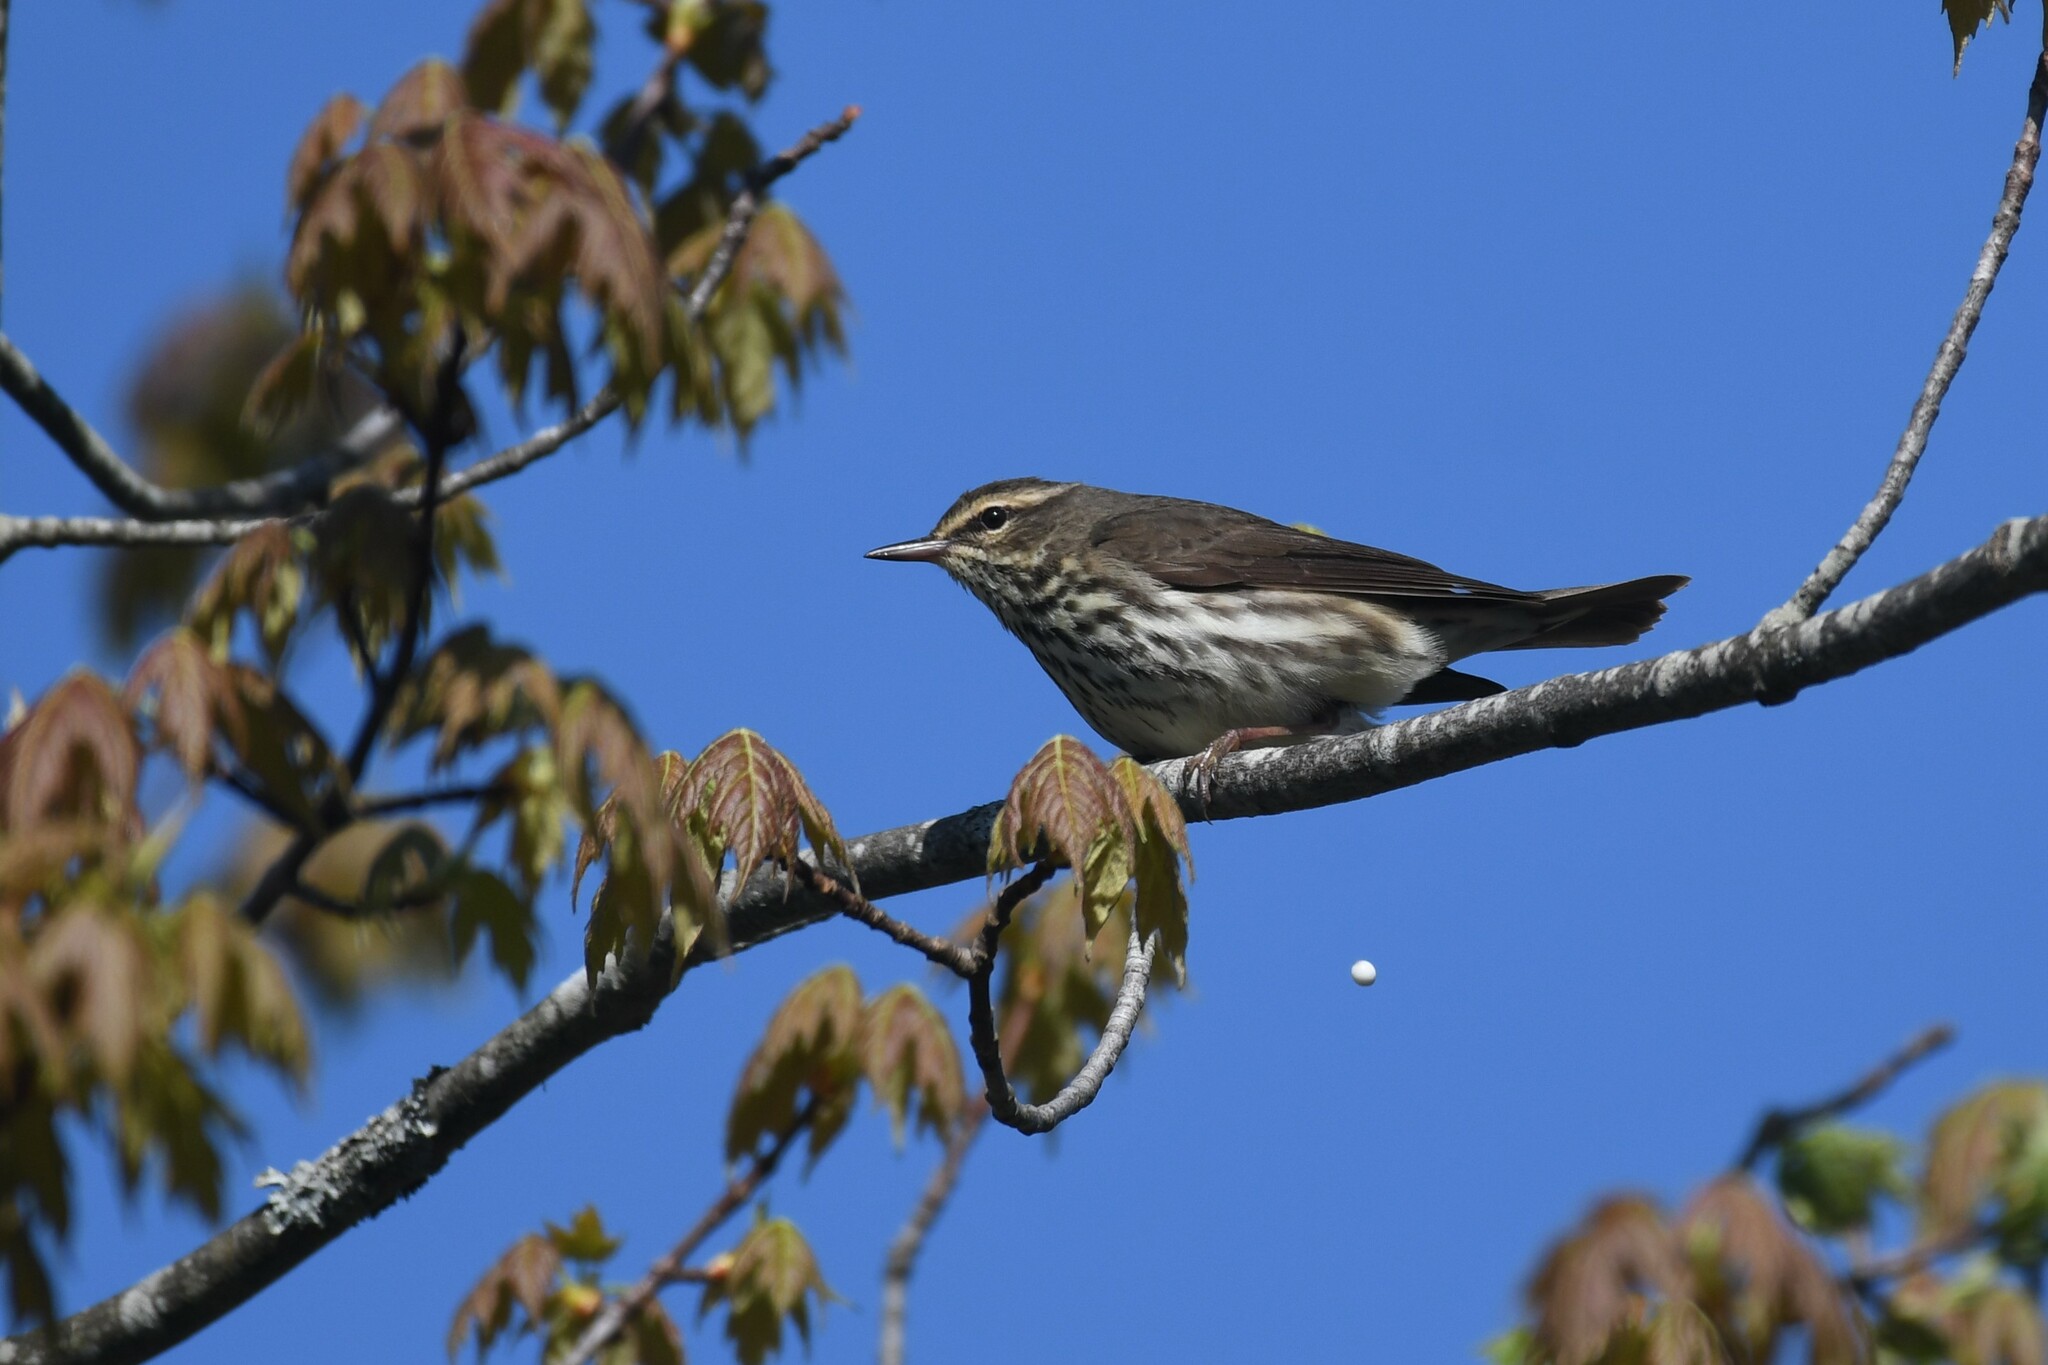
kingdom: Animalia
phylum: Chordata
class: Aves
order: Passeriformes
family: Parulidae
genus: Parkesia
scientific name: Parkesia noveboracensis
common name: Northern waterthrush
